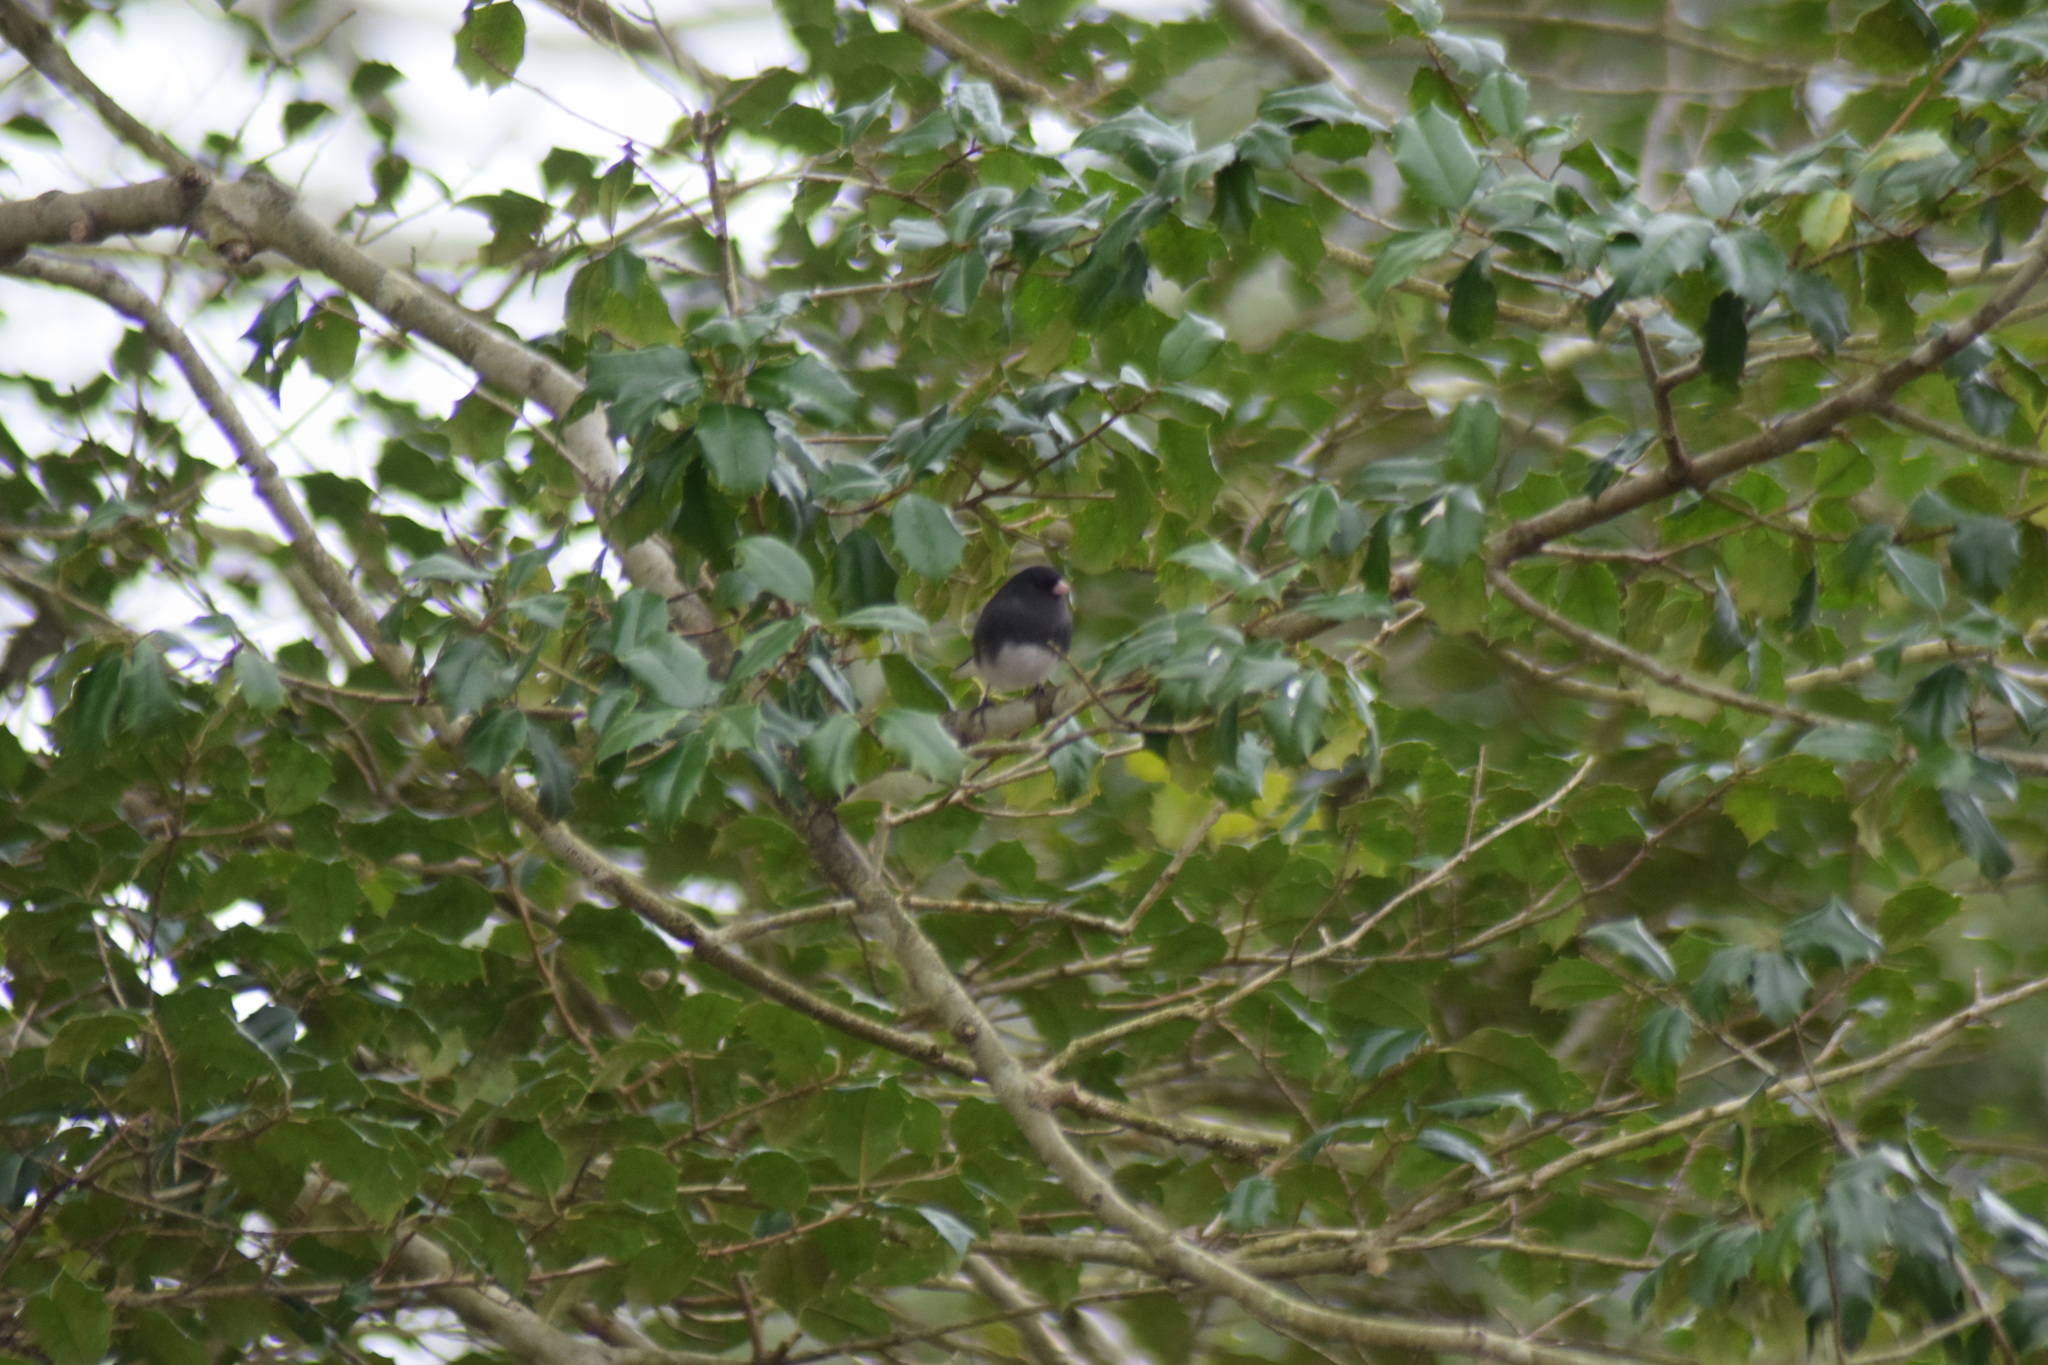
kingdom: Animalia
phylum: Chordata
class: Aves
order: Passeriformes
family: Passerellidae
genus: Junco
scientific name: Junco hyemalis
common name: Dark-eyed junco
